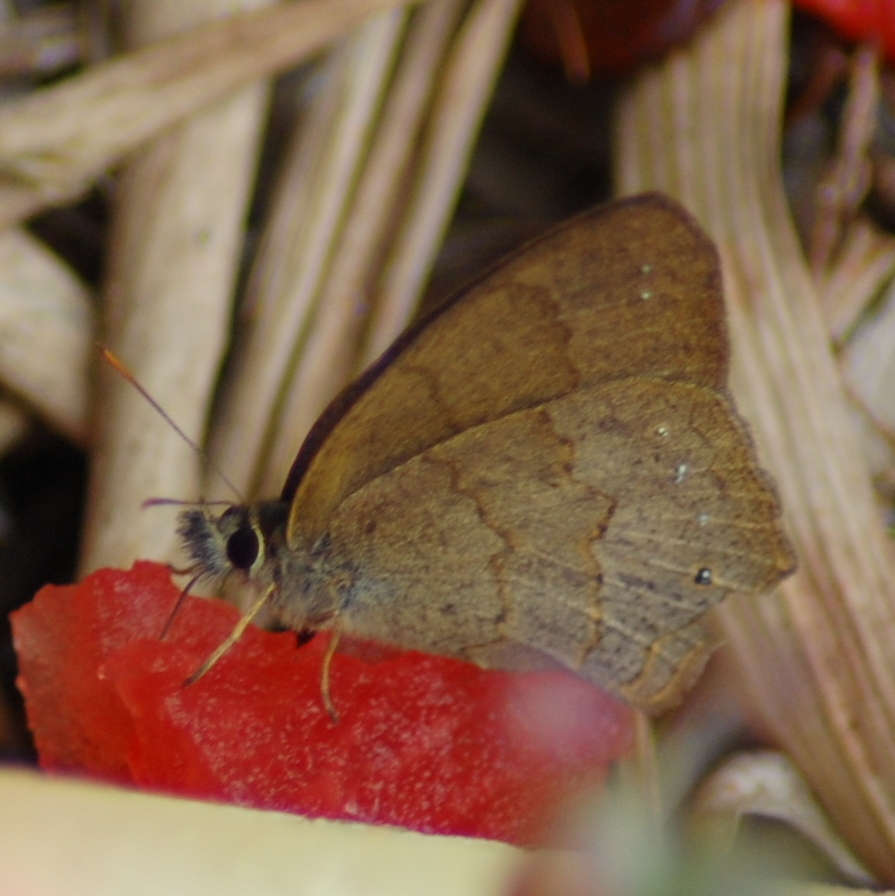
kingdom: Animalia
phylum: Arthropoda
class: Insecta
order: Lepidoptera
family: Nymphalidae
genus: Euptychia
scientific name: Euptychia
